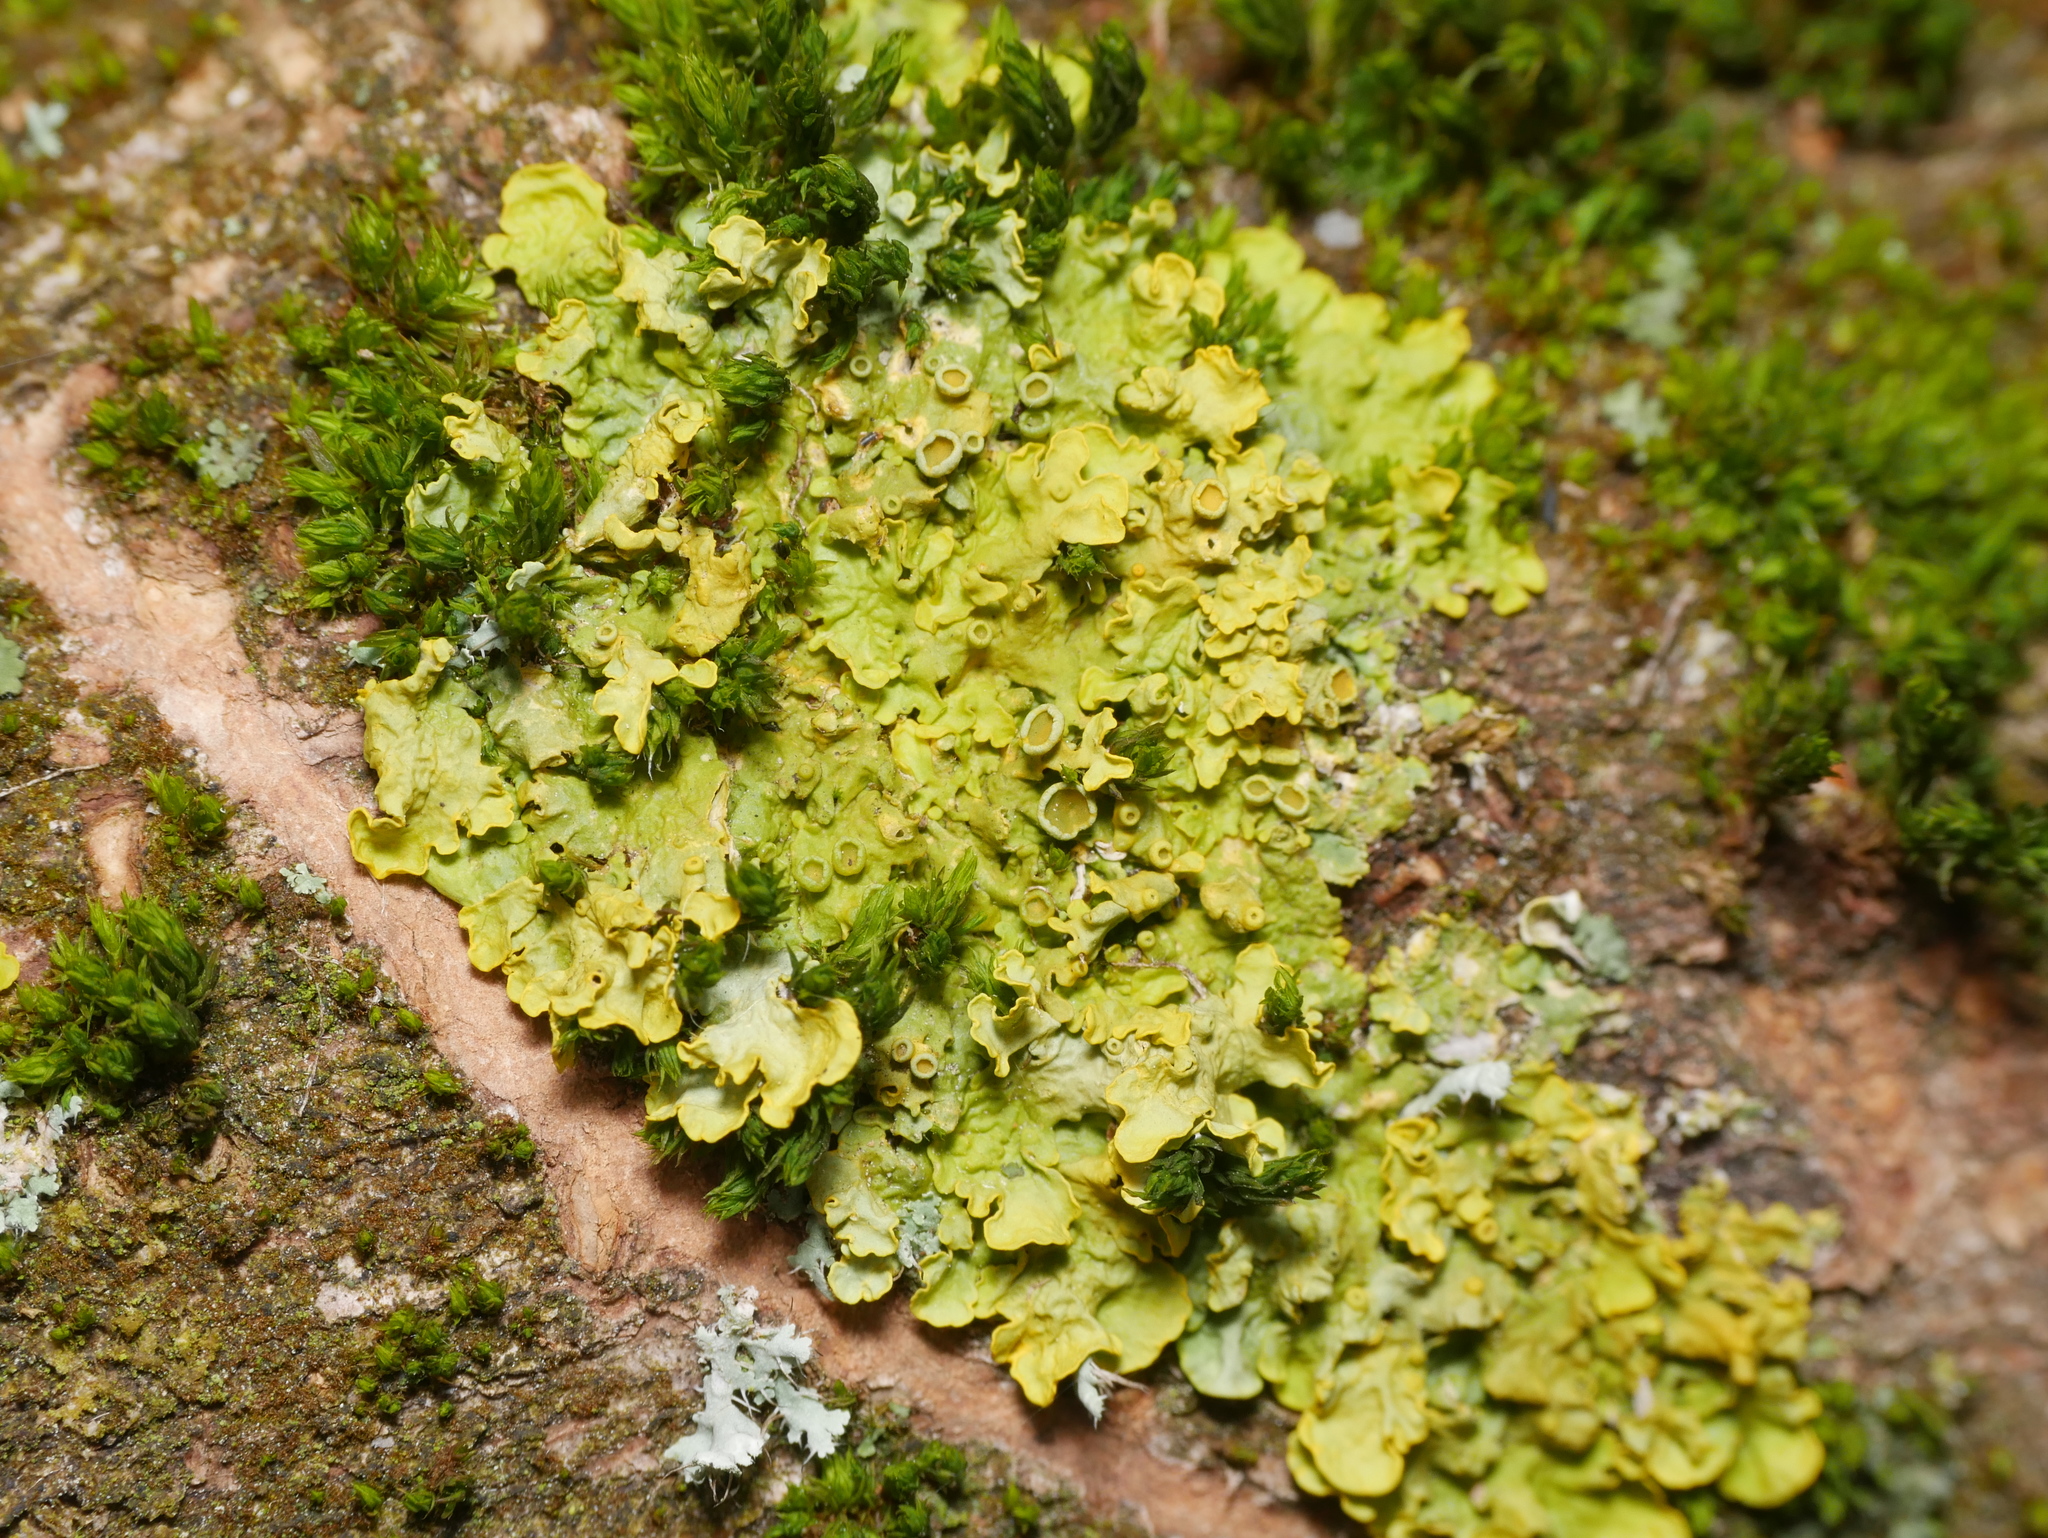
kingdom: Fungi
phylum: Ascomycota
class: Lecanoromycetes
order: Teloschistales
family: Teloschistaceae
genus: Xanthoria
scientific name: Xanthoria parietina
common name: Common orange lichen
